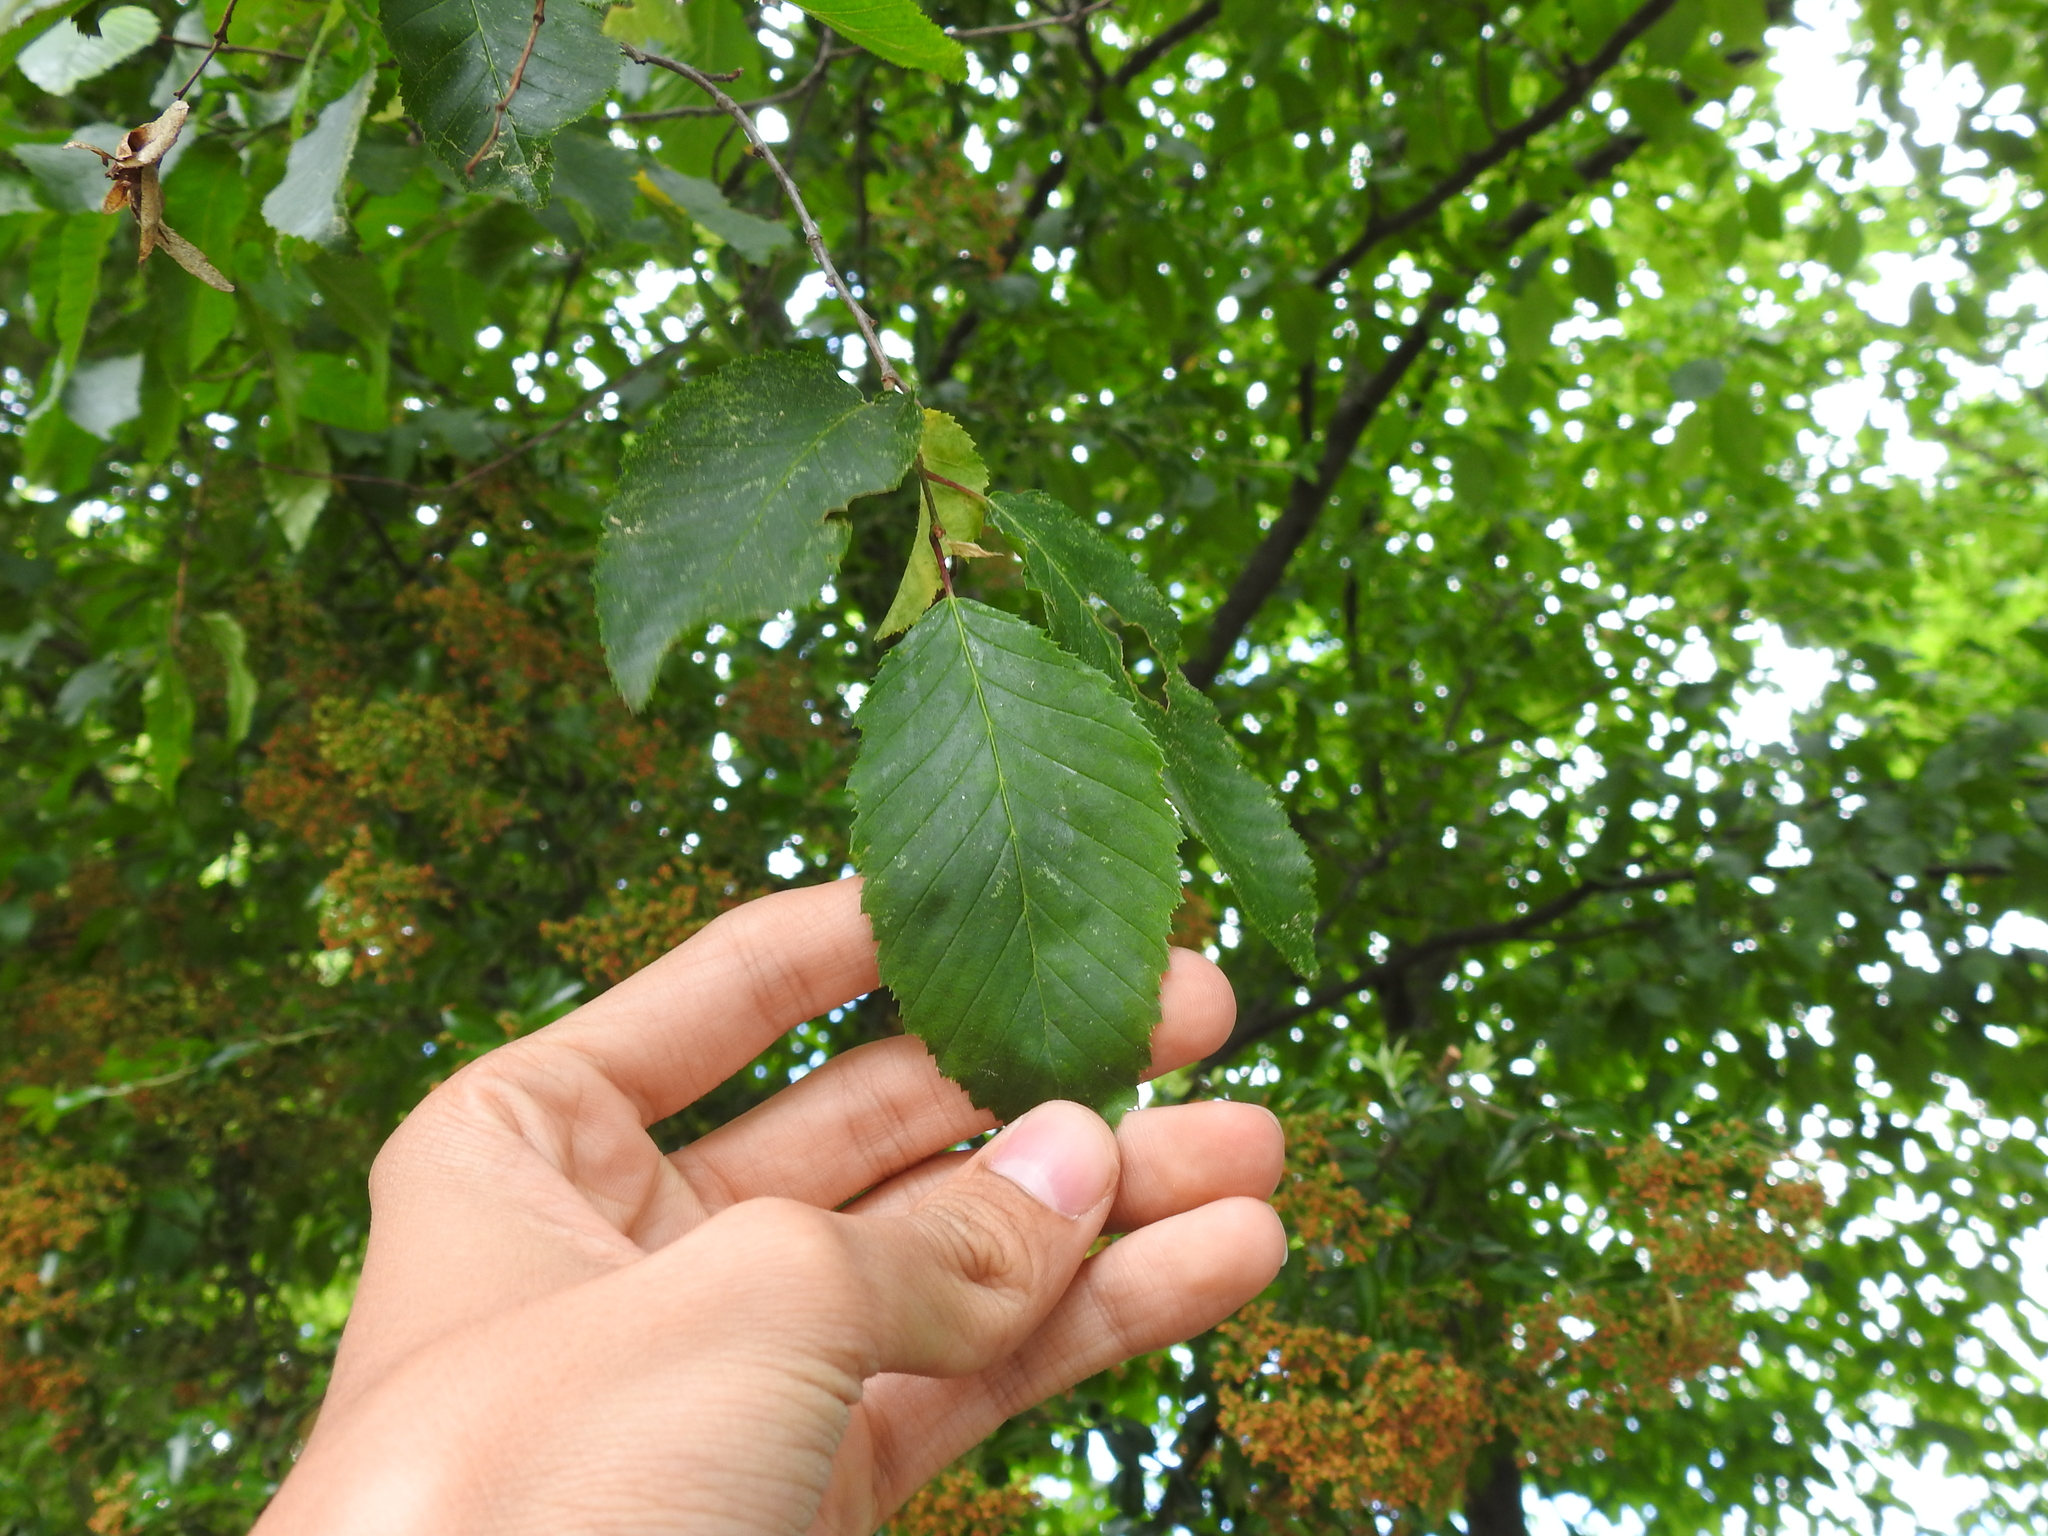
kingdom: Plantae
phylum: Tracheophyta
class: Magnoliopsida
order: Fagales
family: Betulaceae
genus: Carpinus
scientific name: Carpinus betulus
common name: Hornbeam
